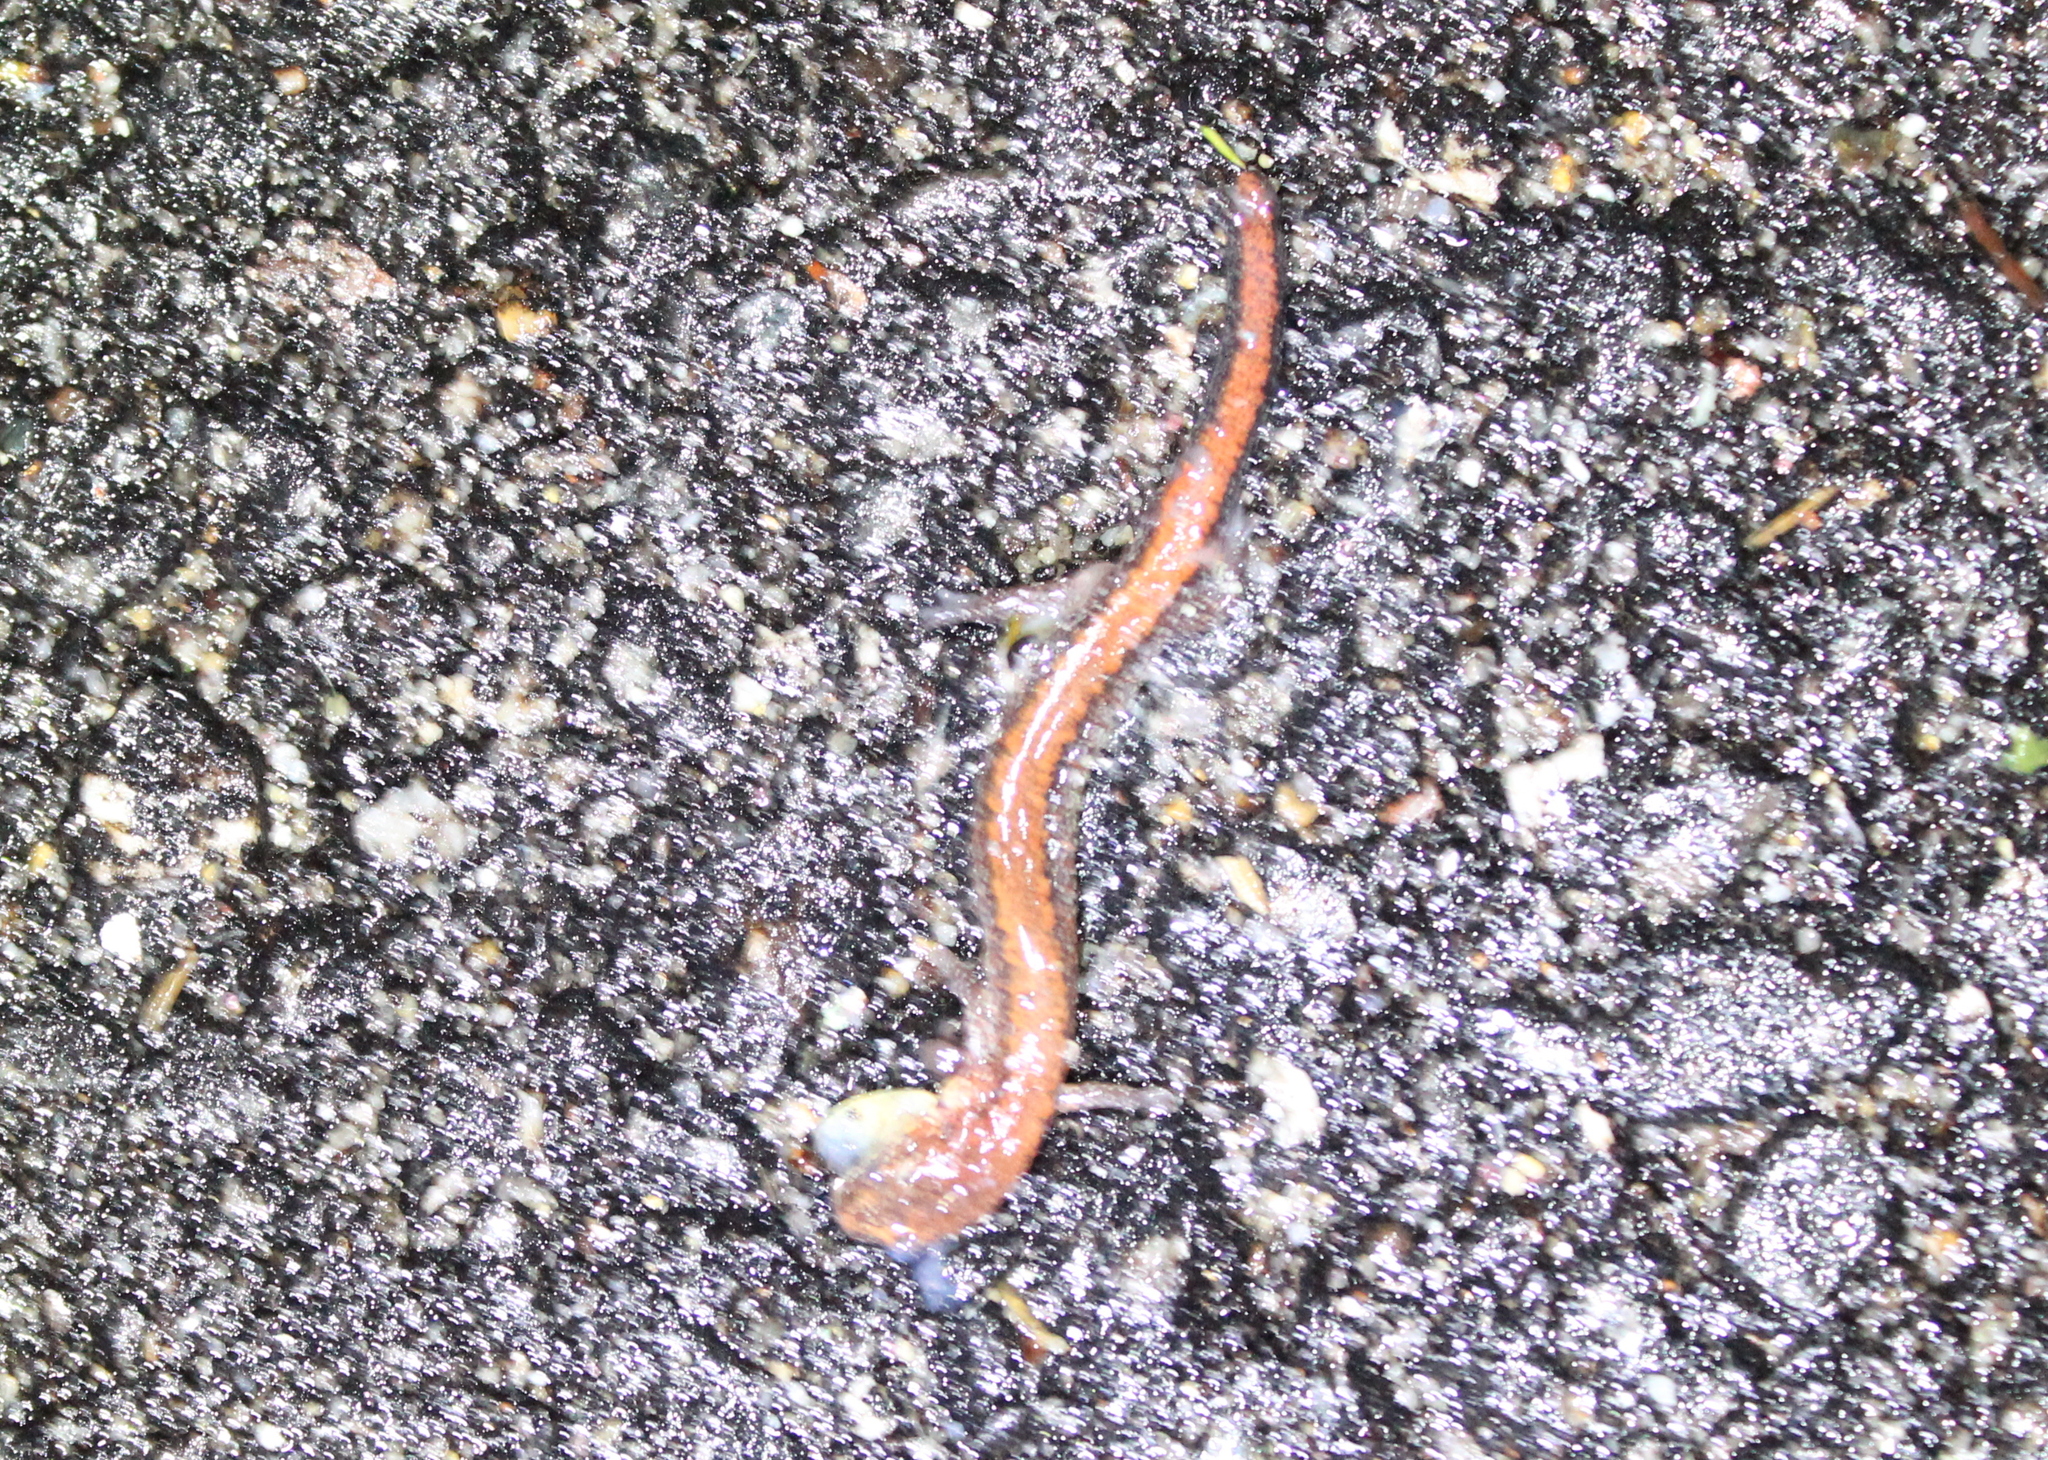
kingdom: Animalia
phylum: Chordata
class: Amphibia
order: Caudata
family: Plethodontidae
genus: Plethodon
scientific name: Plethodon cinereus
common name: Redback salamander
